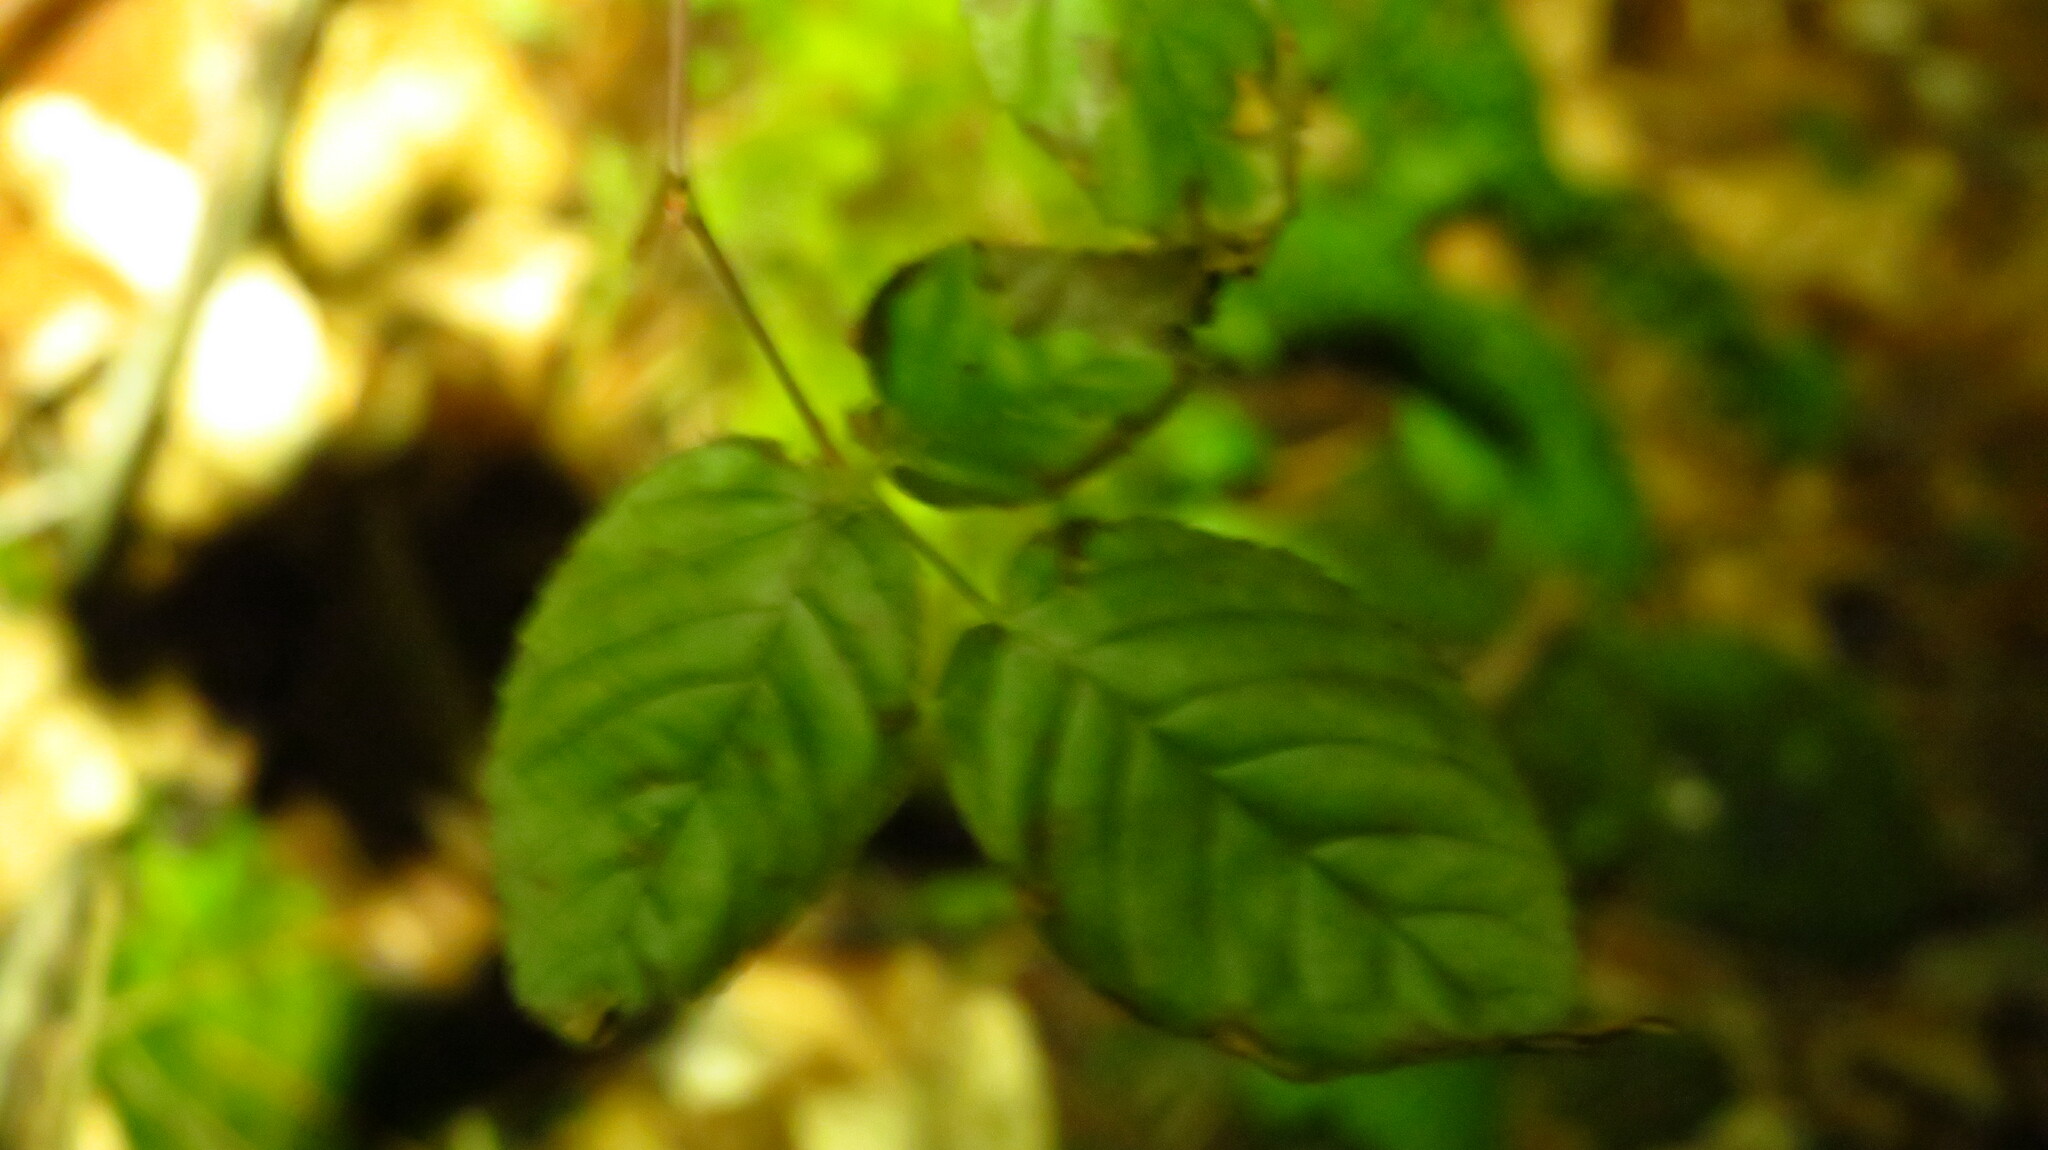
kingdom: Plantae
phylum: Tracheophyta
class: Magnoliopsida
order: Rosales
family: Rosaceae
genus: Rubus
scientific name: Rubus
